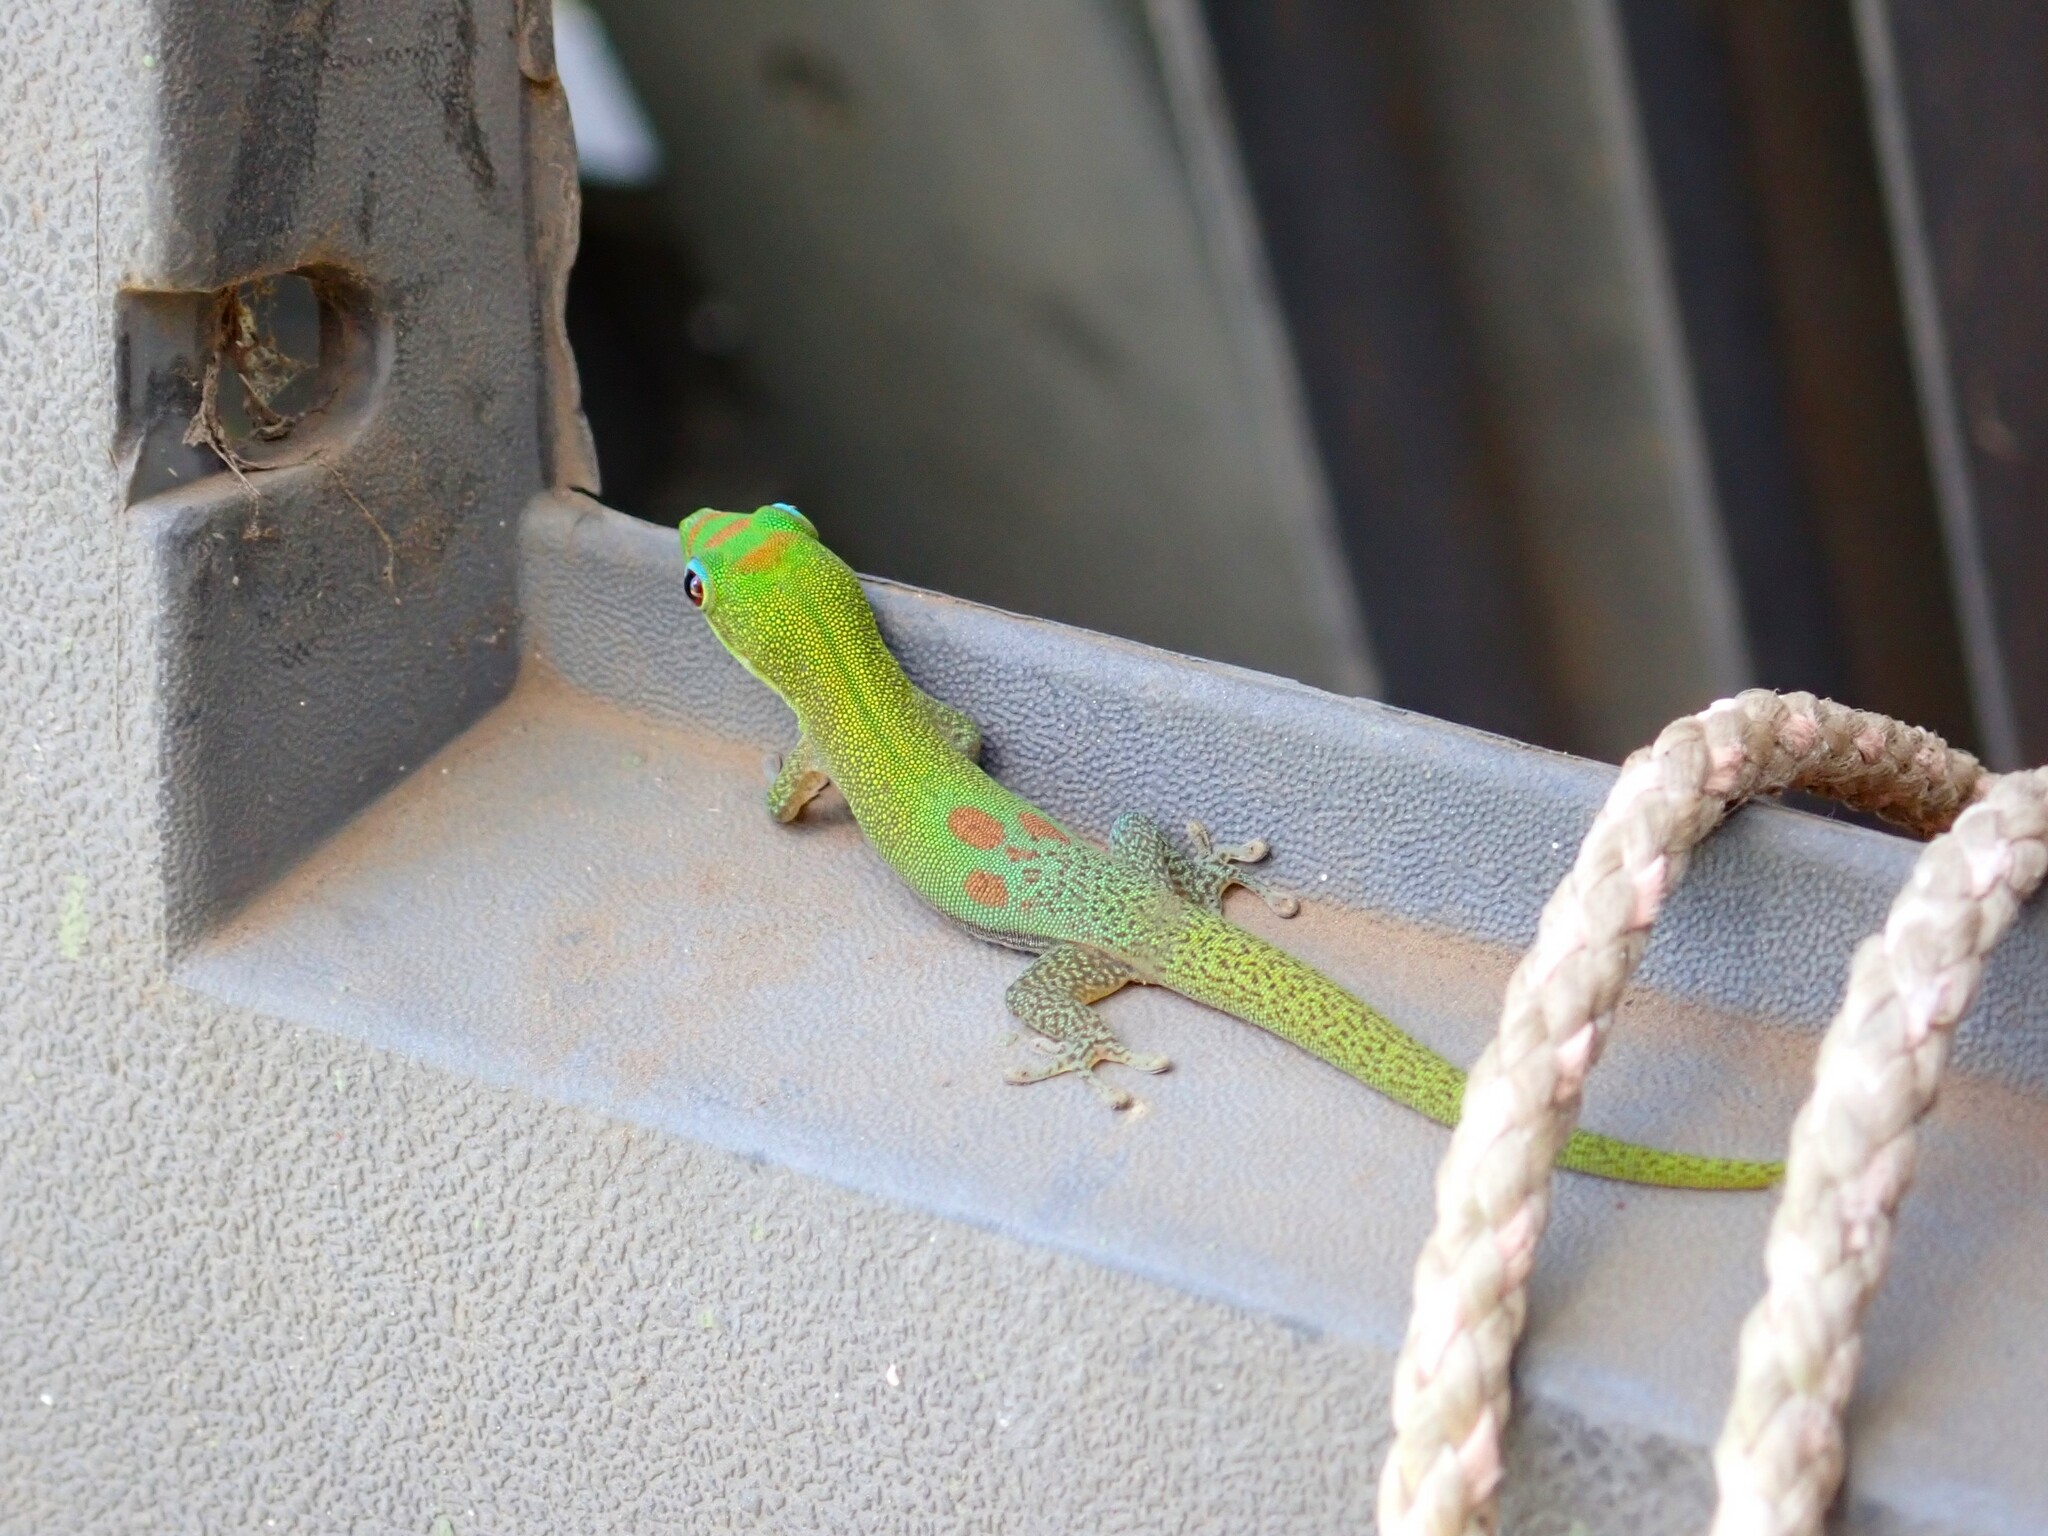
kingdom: Animalia
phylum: Chordata
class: Squamata
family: Gekkonidae
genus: Phelsuma
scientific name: Phelsuma laticauda
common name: Gold dust day gecko
